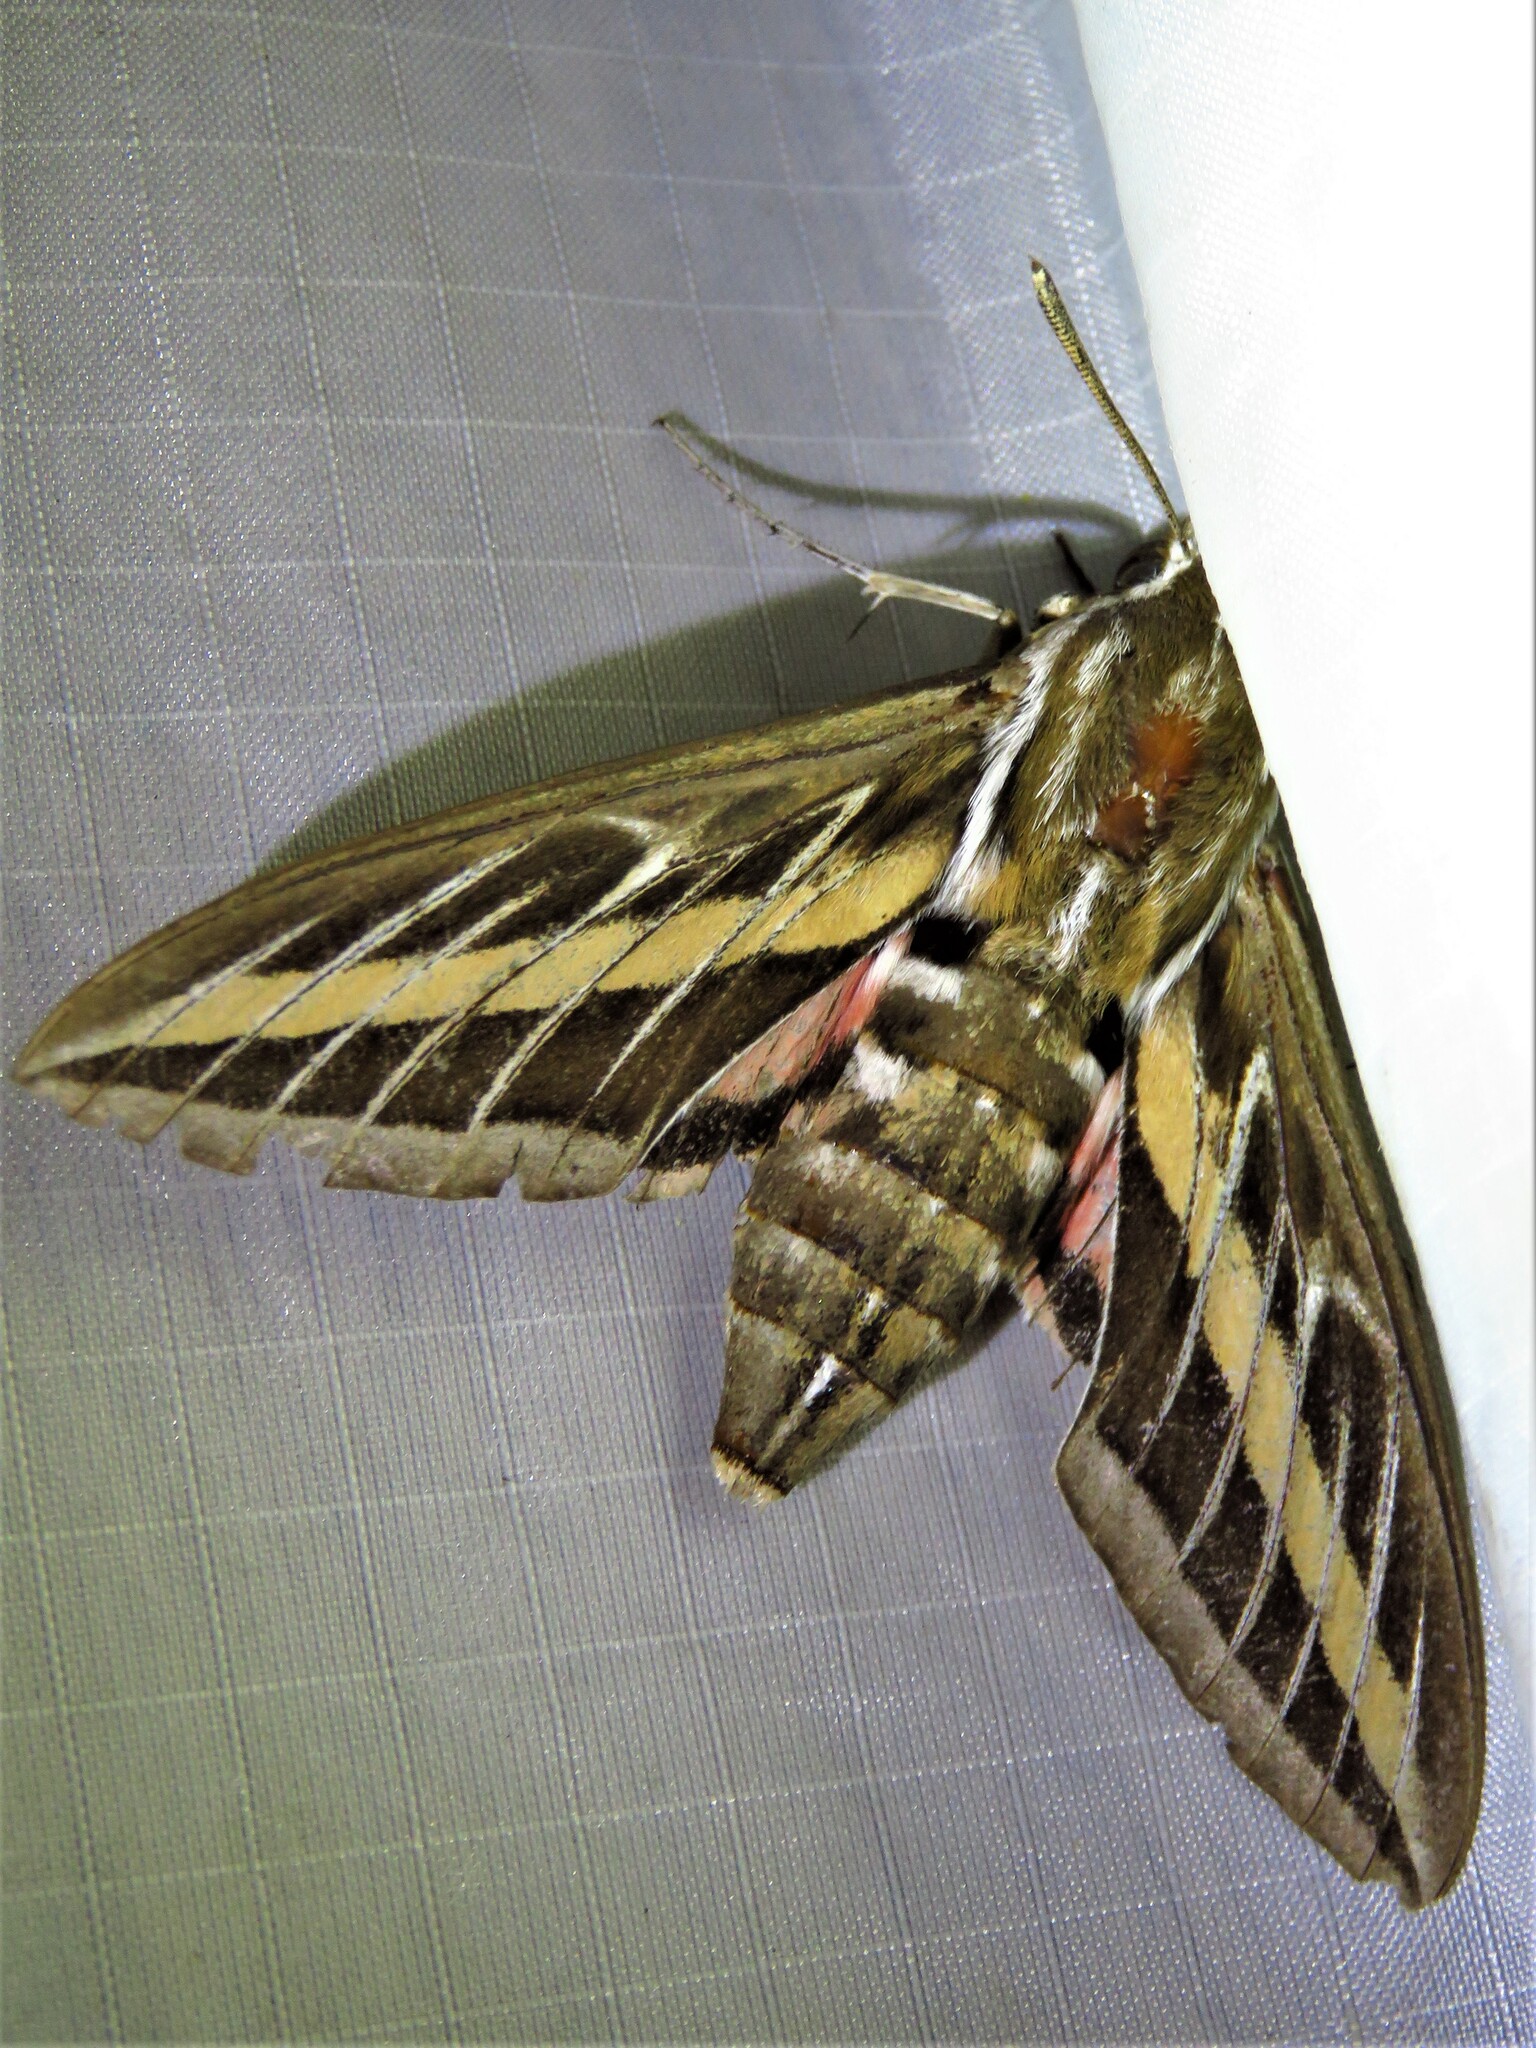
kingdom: Animalia
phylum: Arthropoda
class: Insecta
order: Lepidoptera
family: Sphingidae
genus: Hyles
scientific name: Hyles lineata
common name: White-lined sphinx
